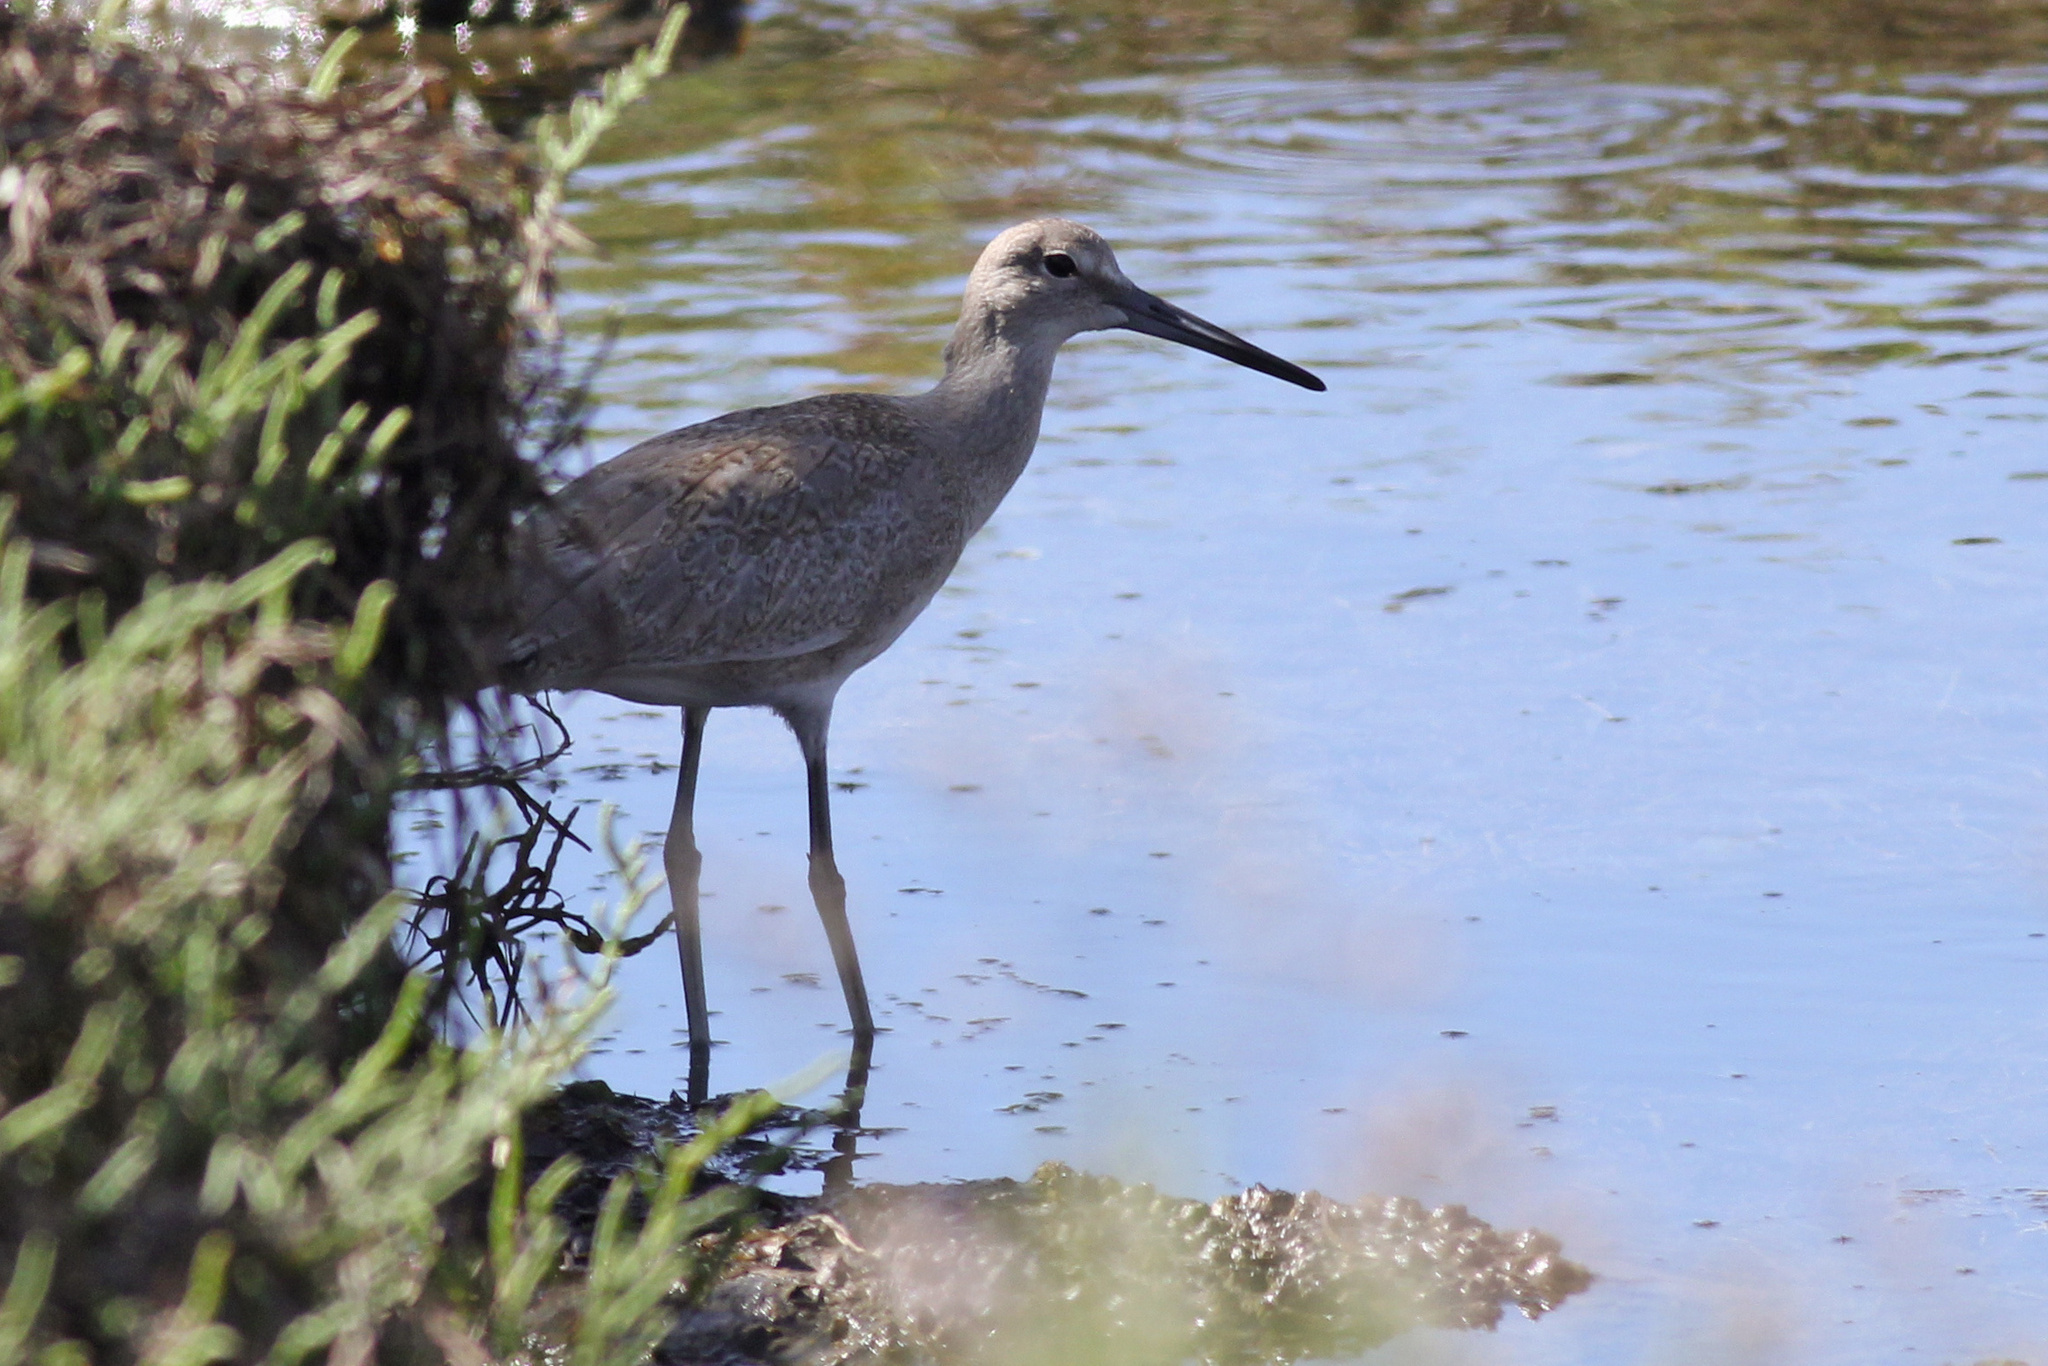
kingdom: Animalia
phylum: Chordata
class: Aves
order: Charadriiformes
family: Scolopacidae
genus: Tringa
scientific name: Tringa semipalmata
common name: Willet
